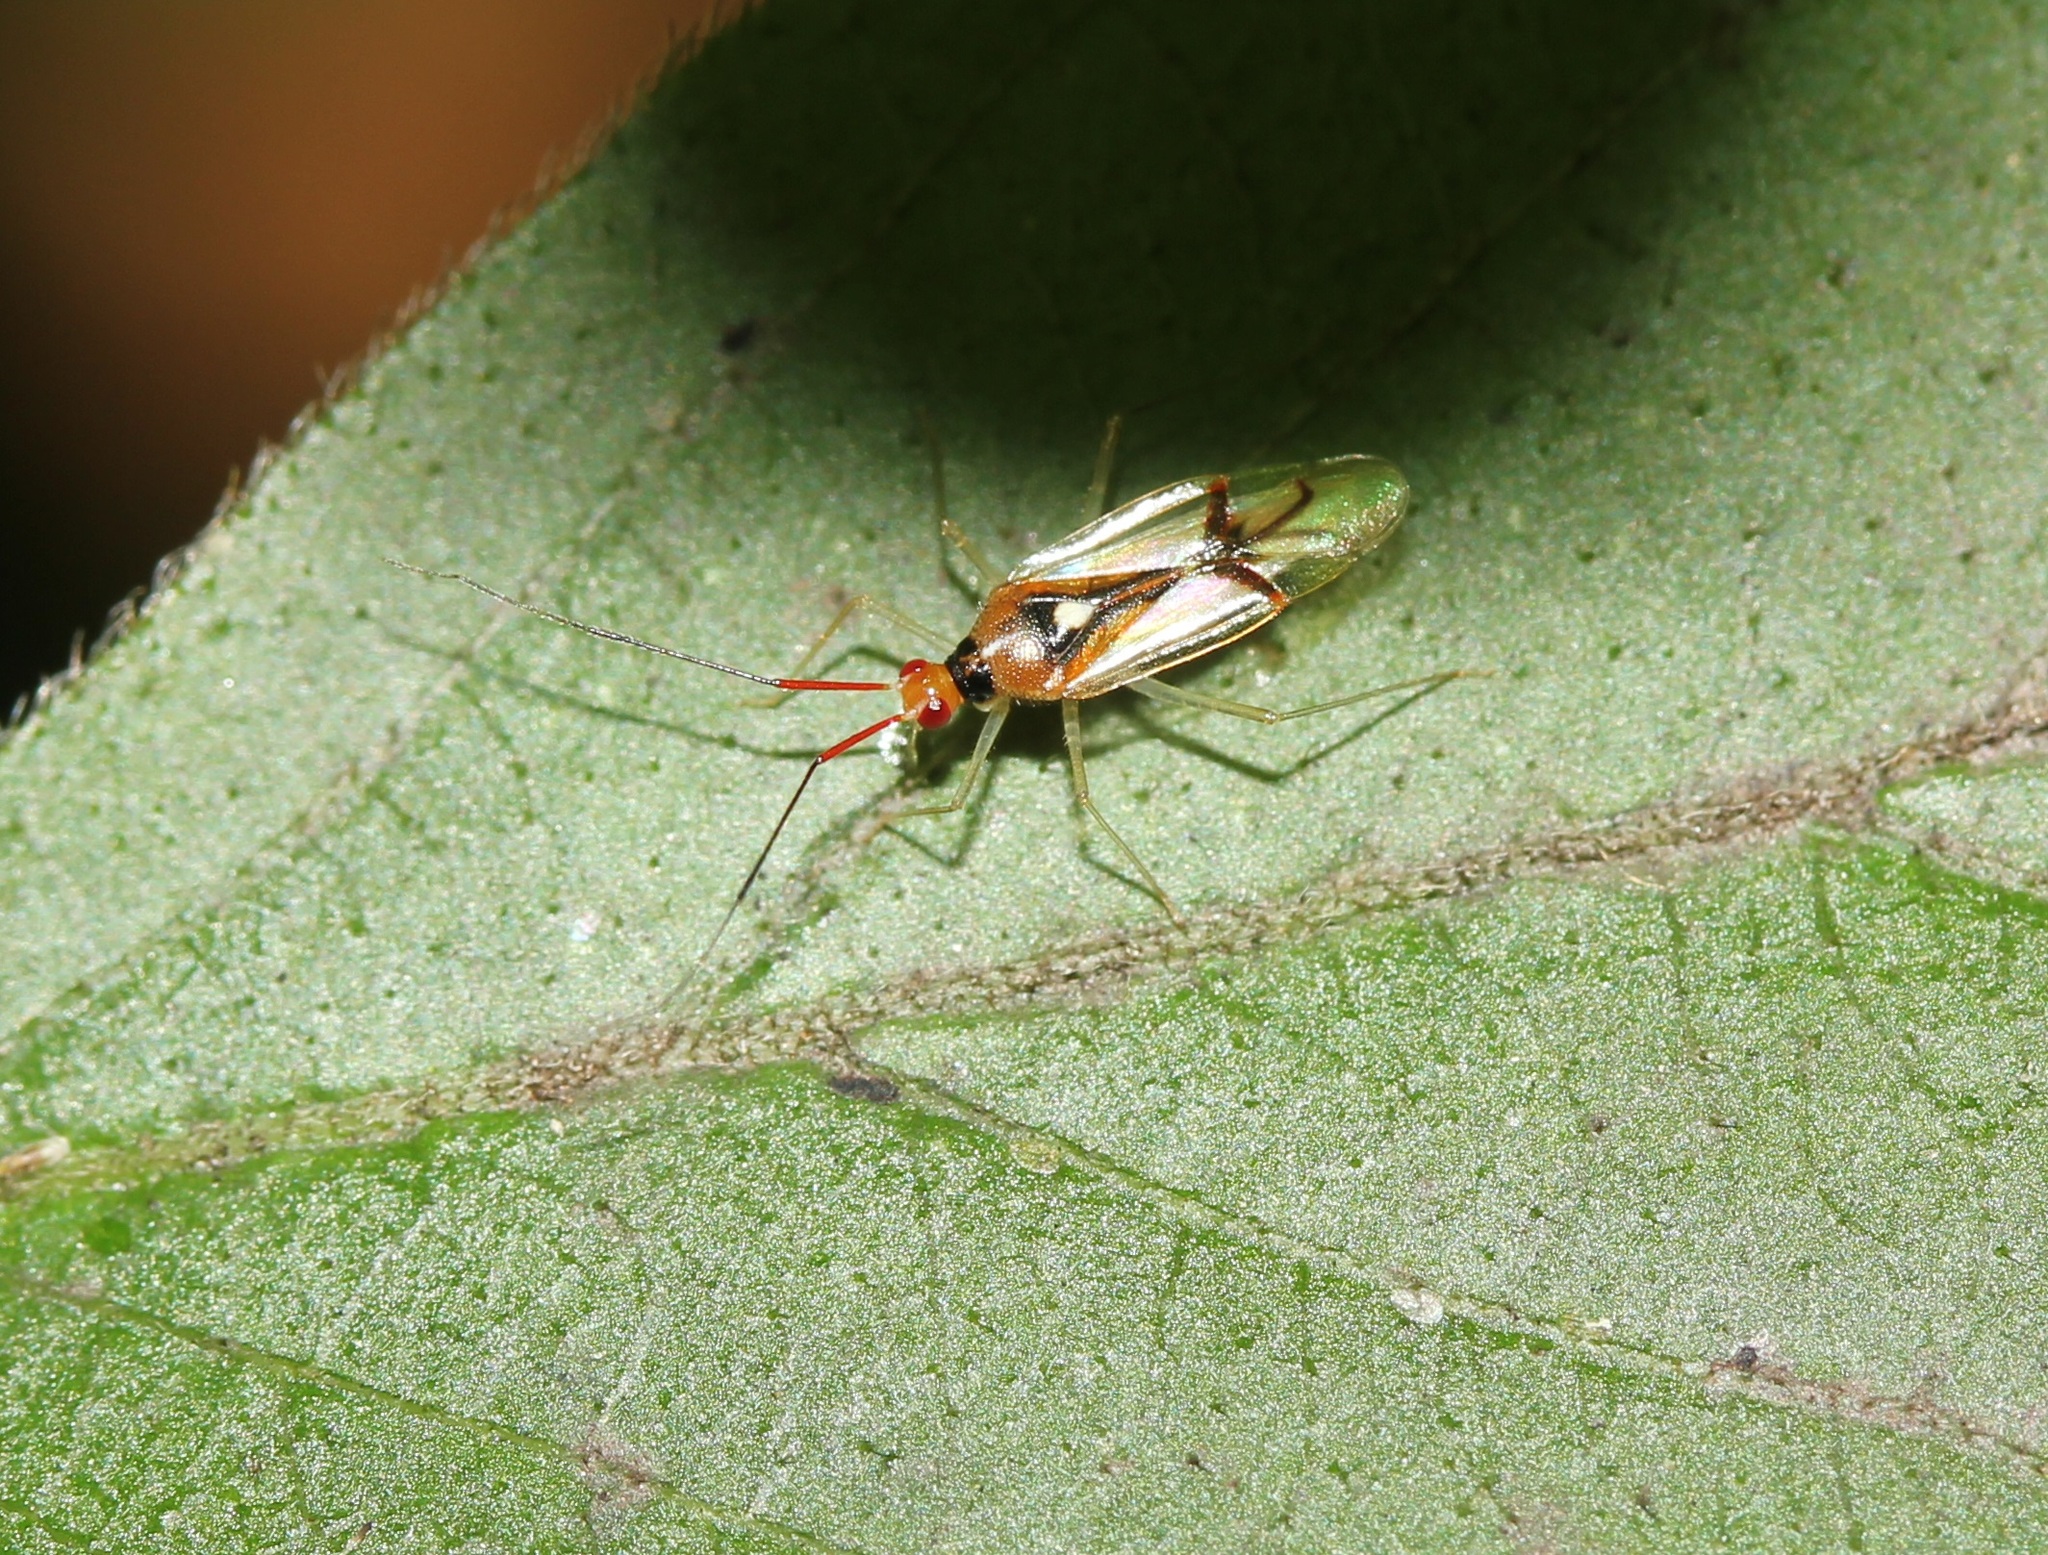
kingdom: Animalia
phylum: Arthropoda
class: Insecta
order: Hemiptera
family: Miridae
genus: Hyaliodes
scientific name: Hyaliodes harti
